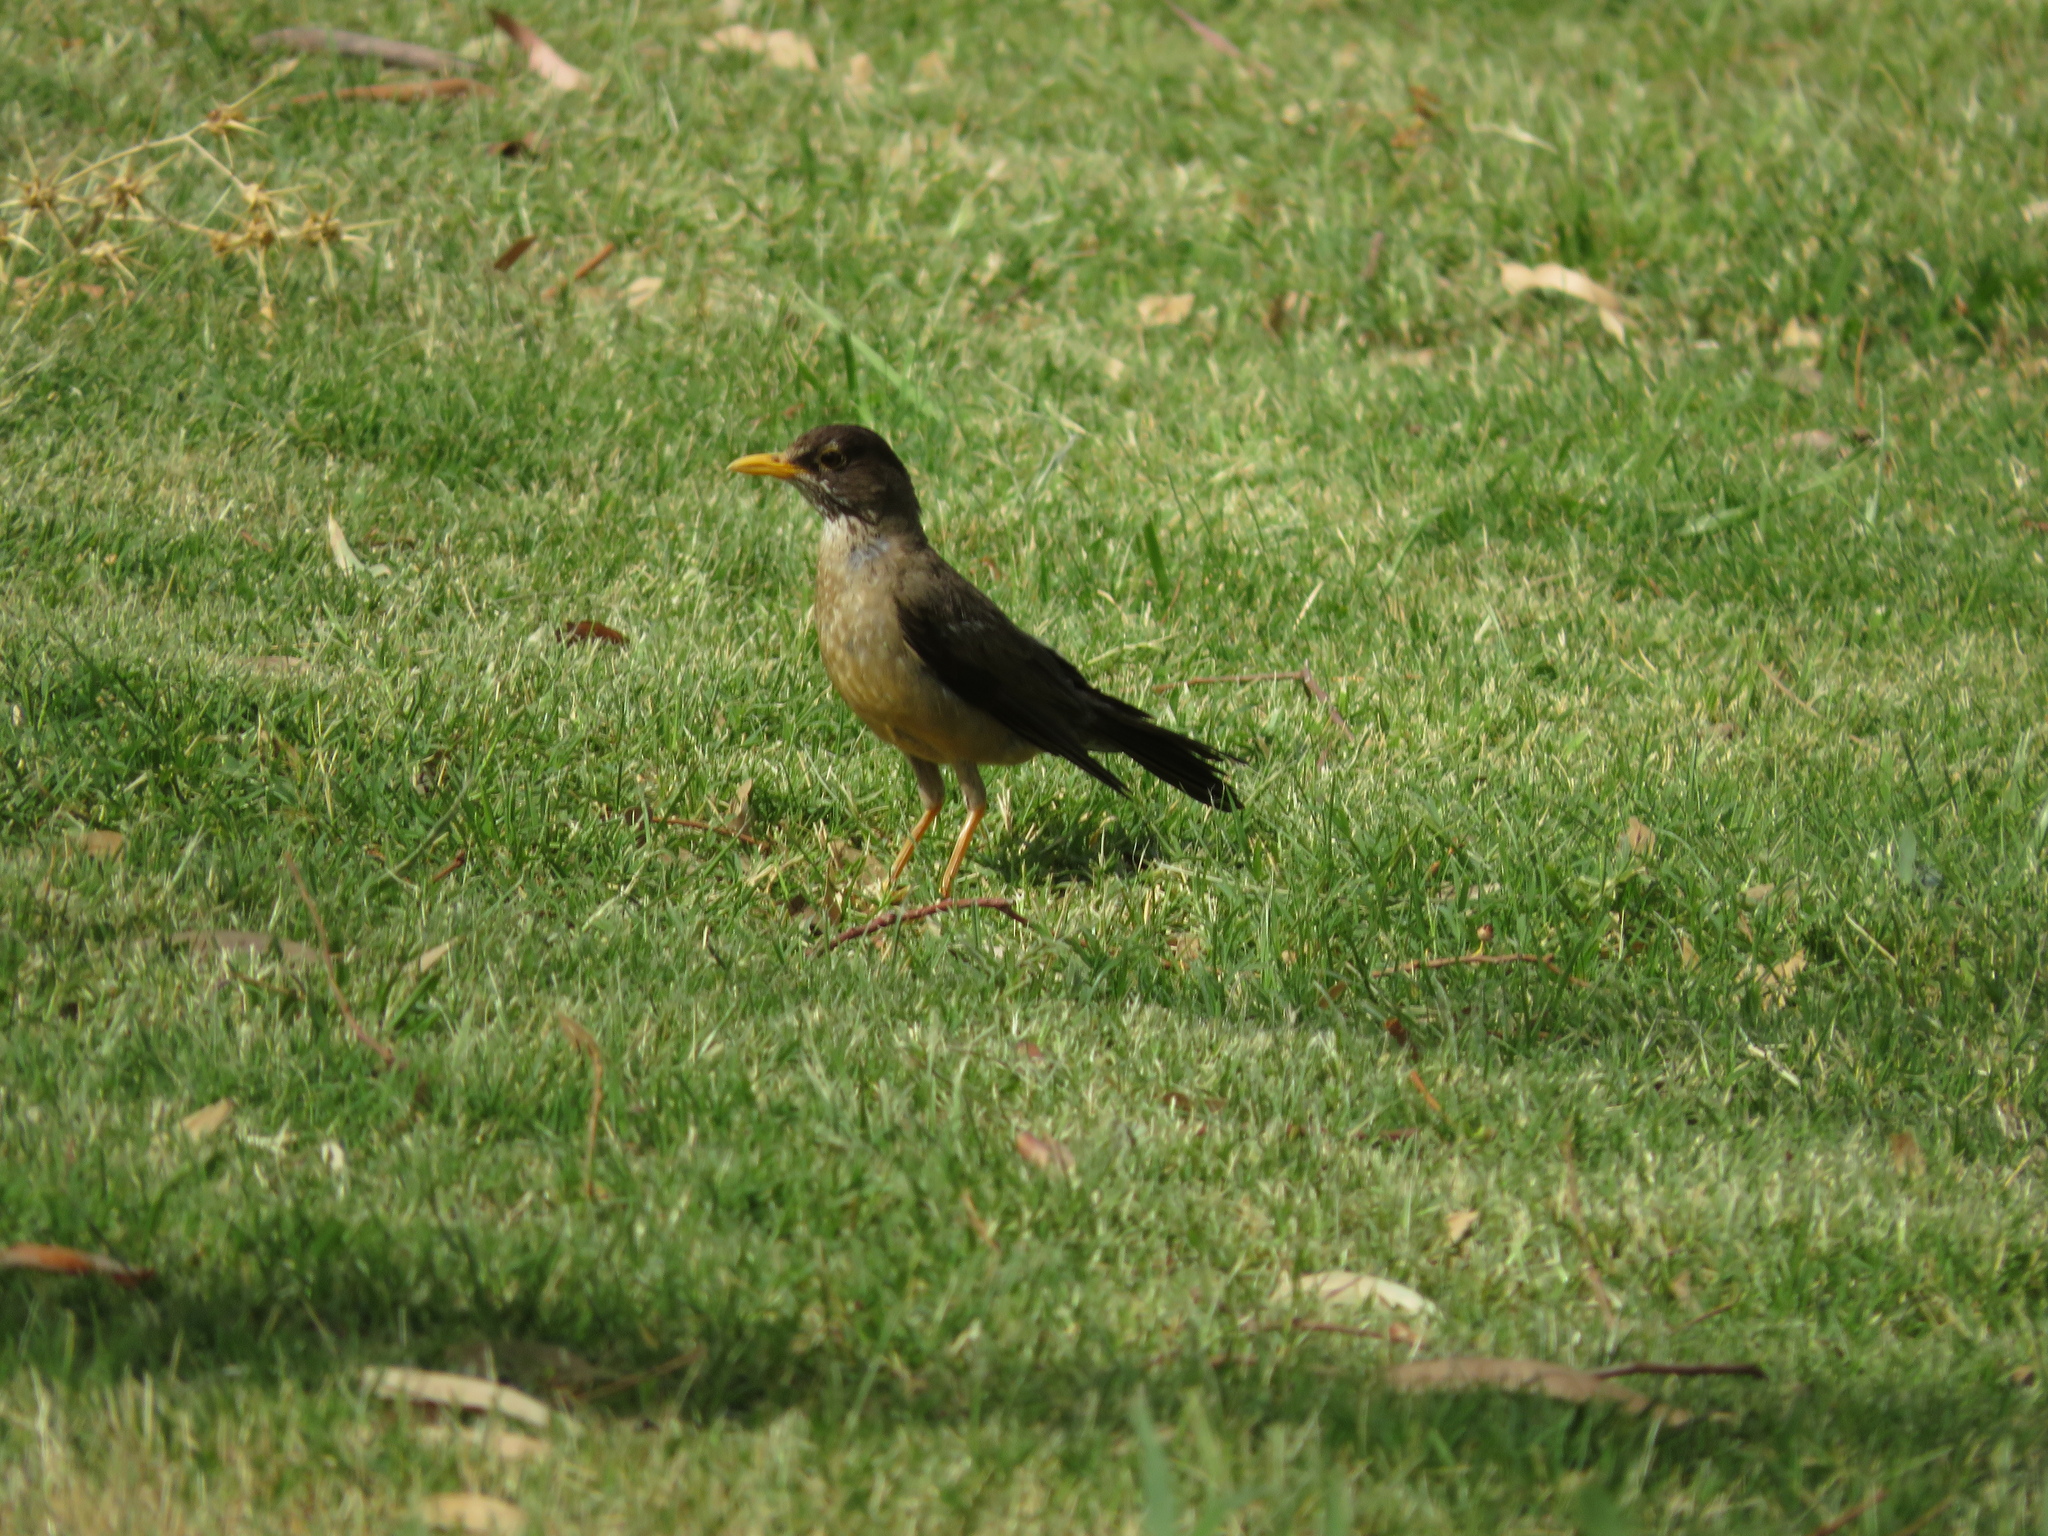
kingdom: Animalia
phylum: Chordata
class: Aves
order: Passeriformes
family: Turdidae
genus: Turdus
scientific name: Turdus falcklandii
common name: Austral thrush
